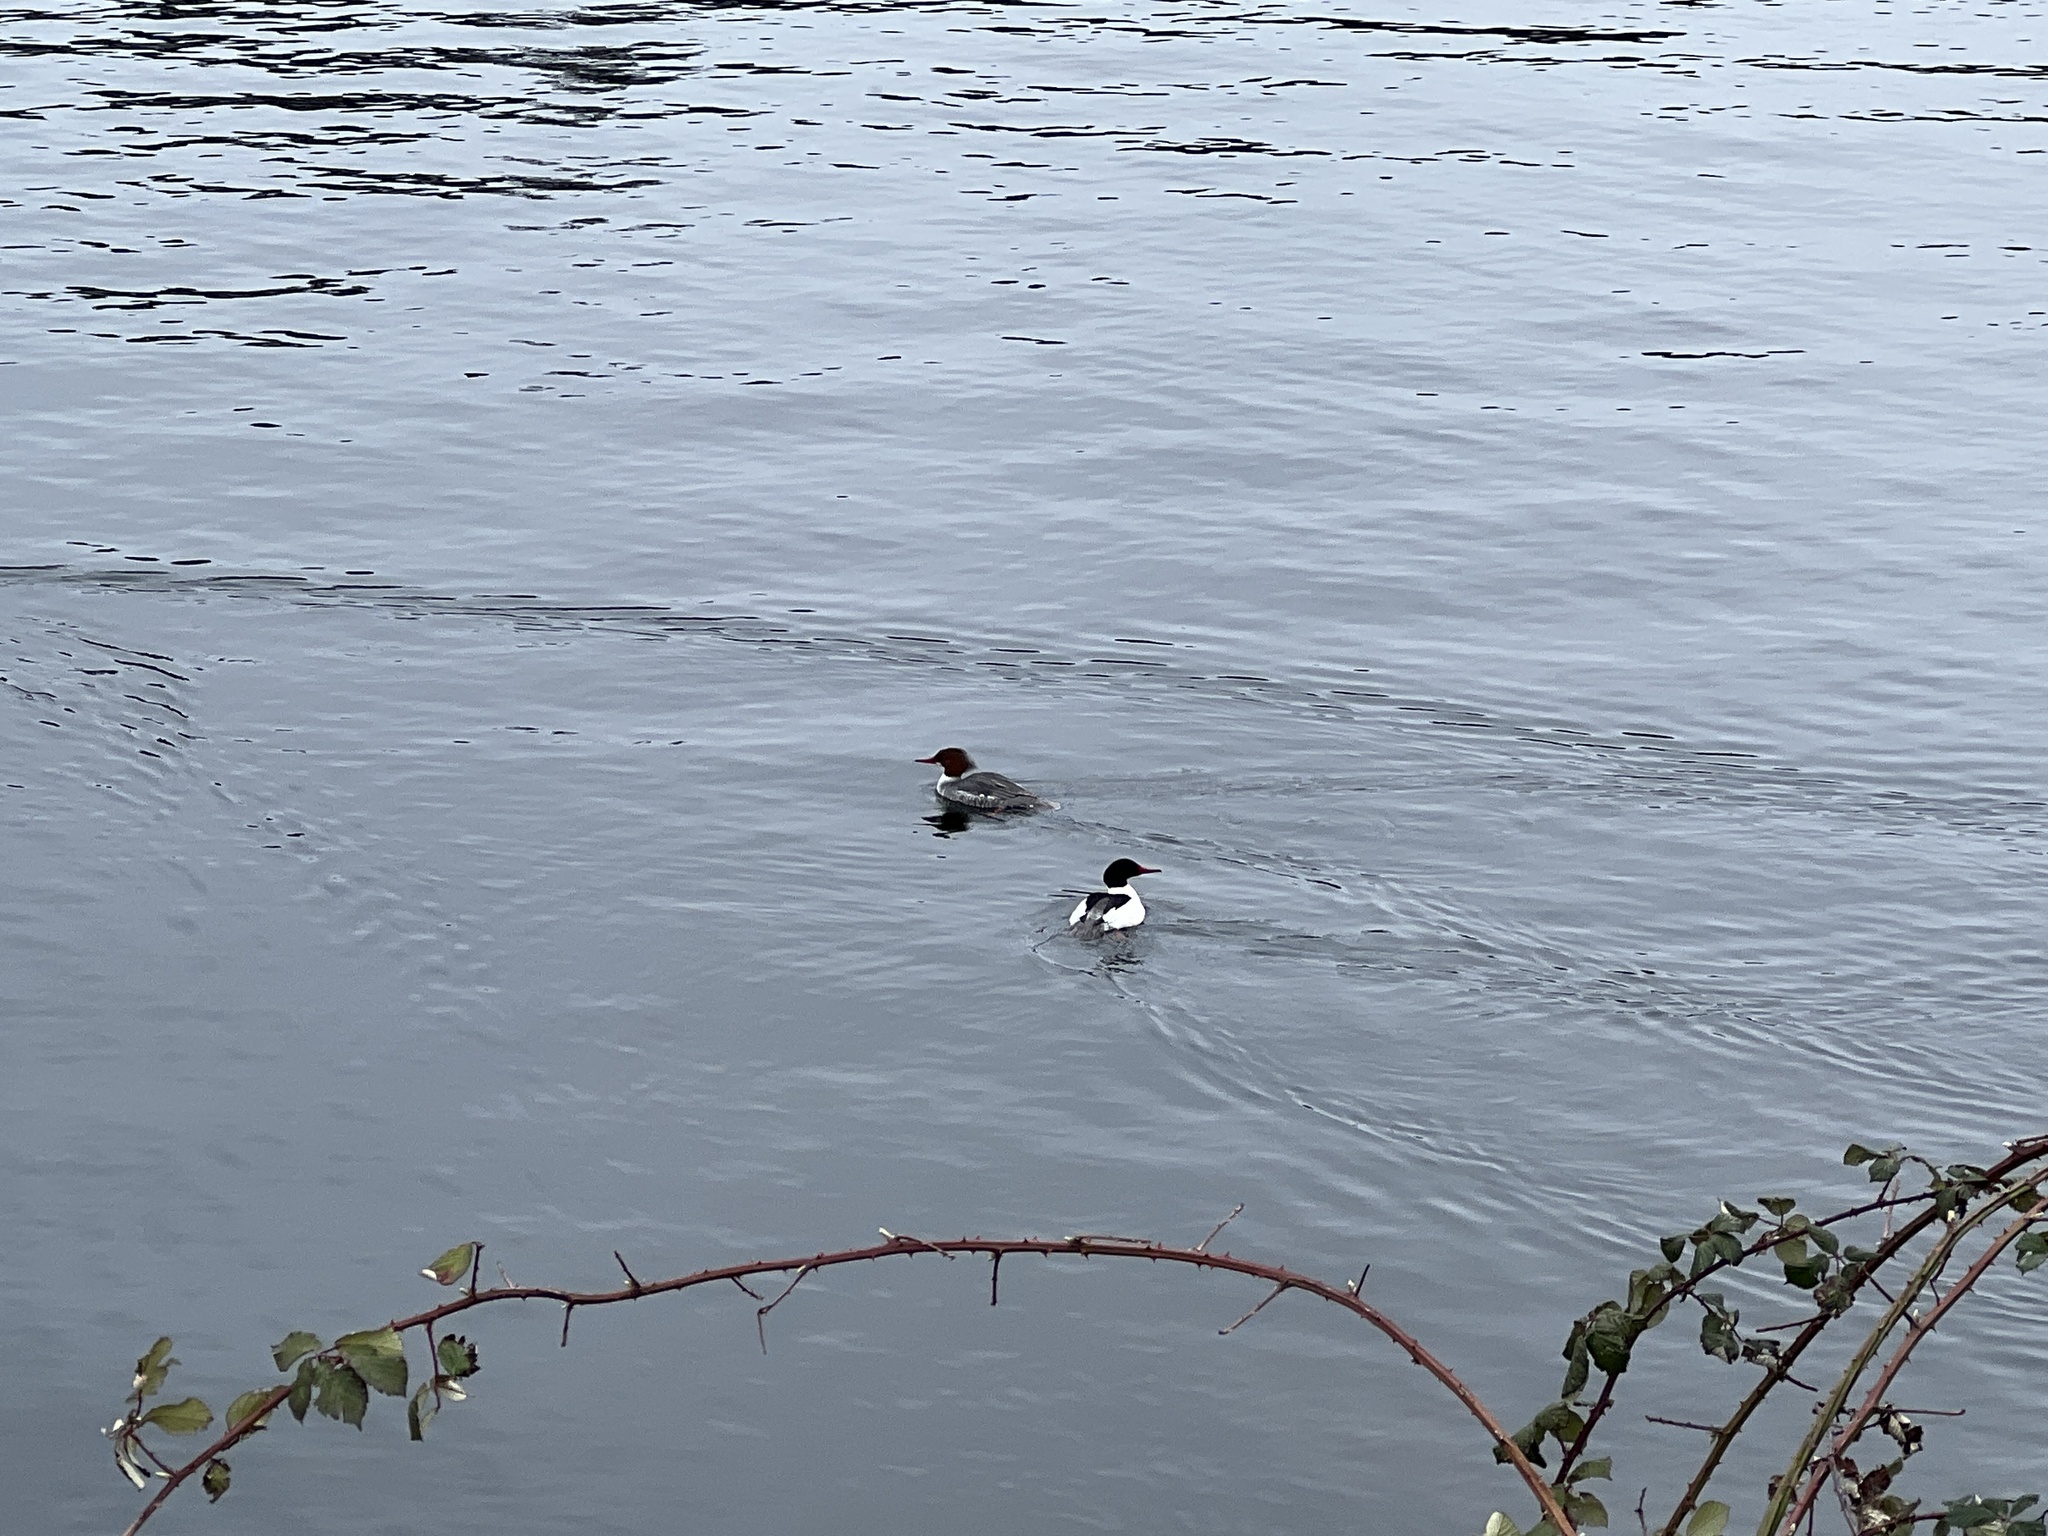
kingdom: Animalia
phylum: Chordata
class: Aves
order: Anseriformes
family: Anatidae
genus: Mergus
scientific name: Mergus merganser
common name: Common merganser
